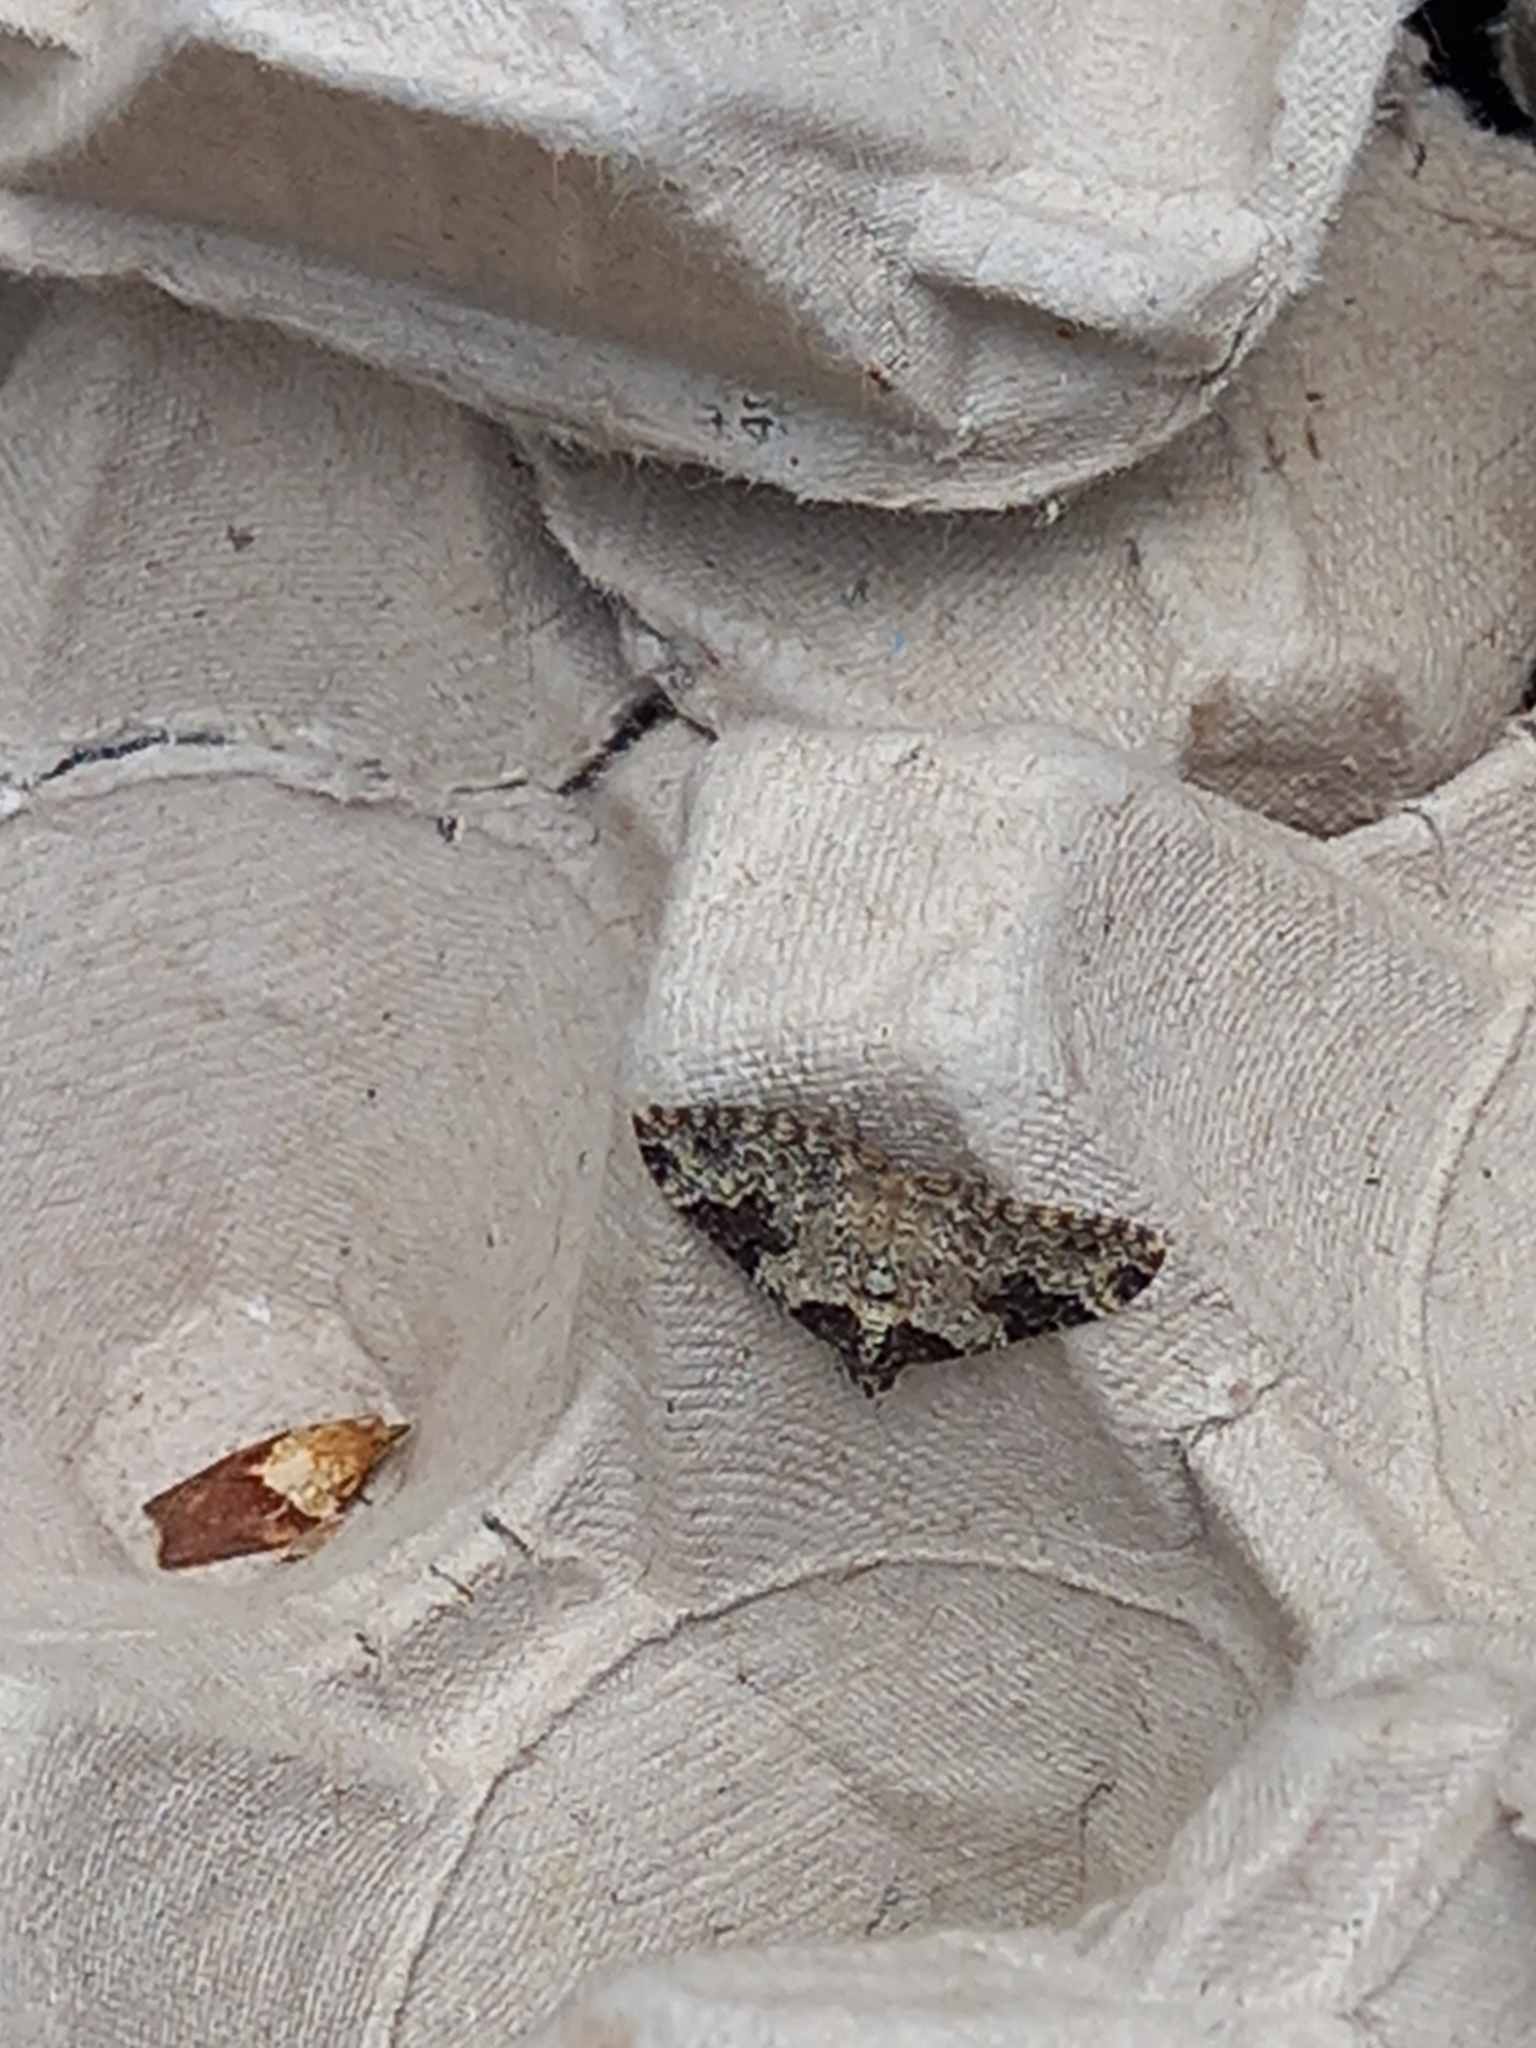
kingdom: Animalia
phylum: Arthropoda
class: Insecta
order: Lepidoptera
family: Geometridae
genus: Xanthorhoe
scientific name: Xanthorhoe fluctuata
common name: Garden carpet
